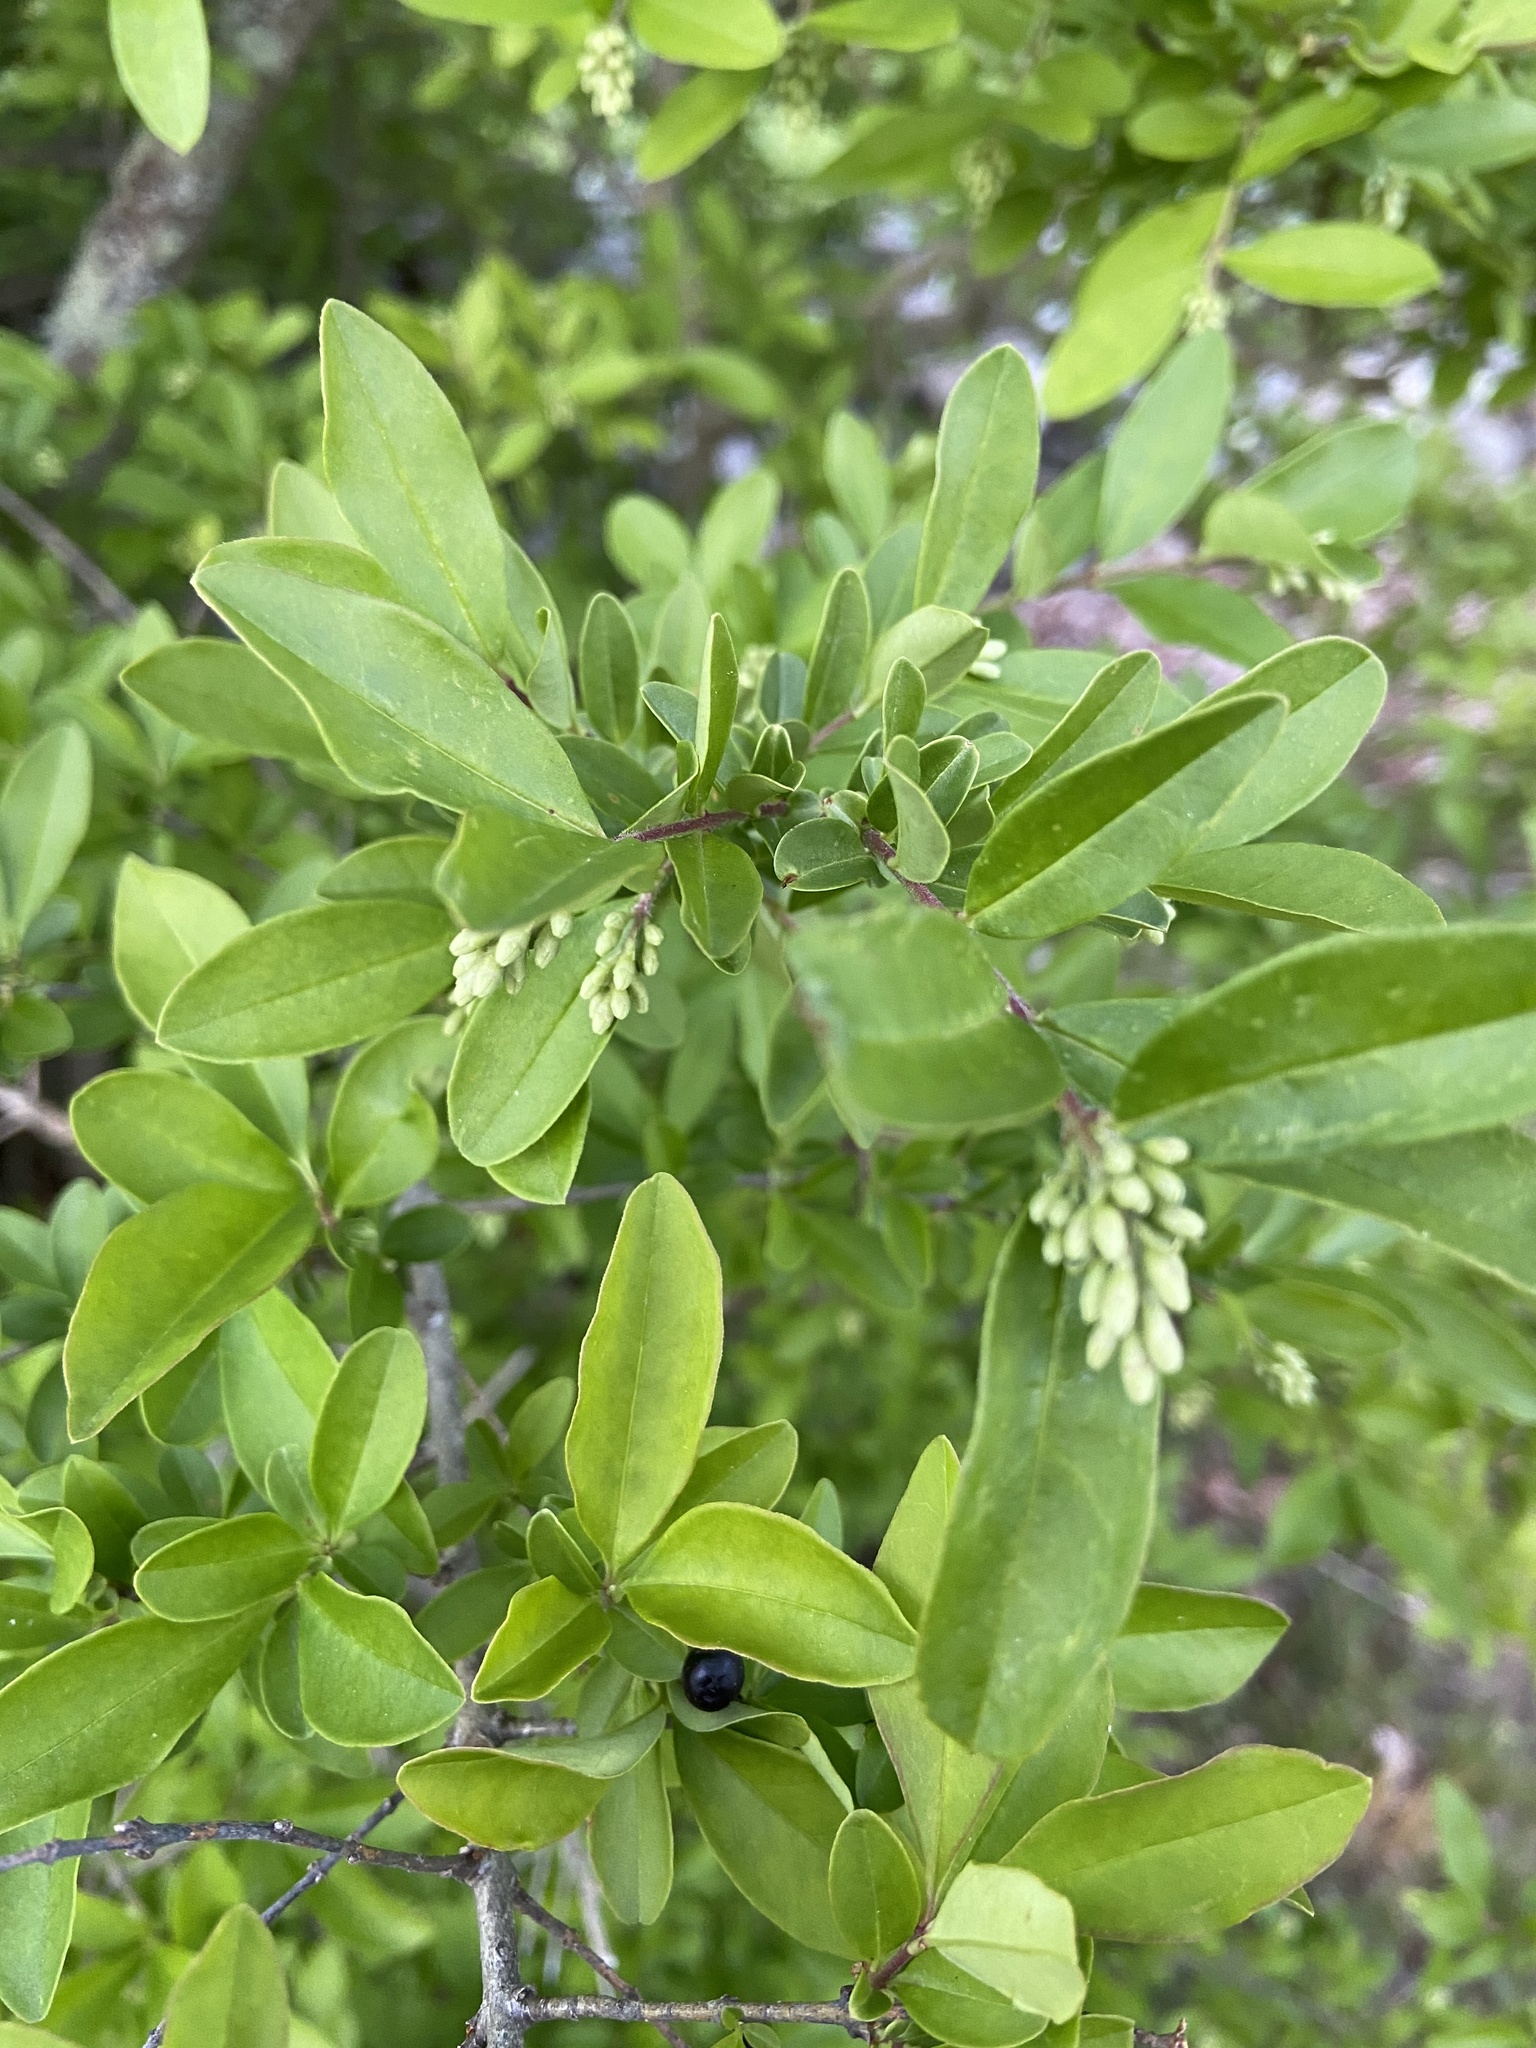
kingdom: Plantae
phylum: Tracheophyta
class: Magnoliopsida
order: Lamiales
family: Oleaceae
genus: Ligustrum
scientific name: Ligustrum obtusifolium
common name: Border privet
